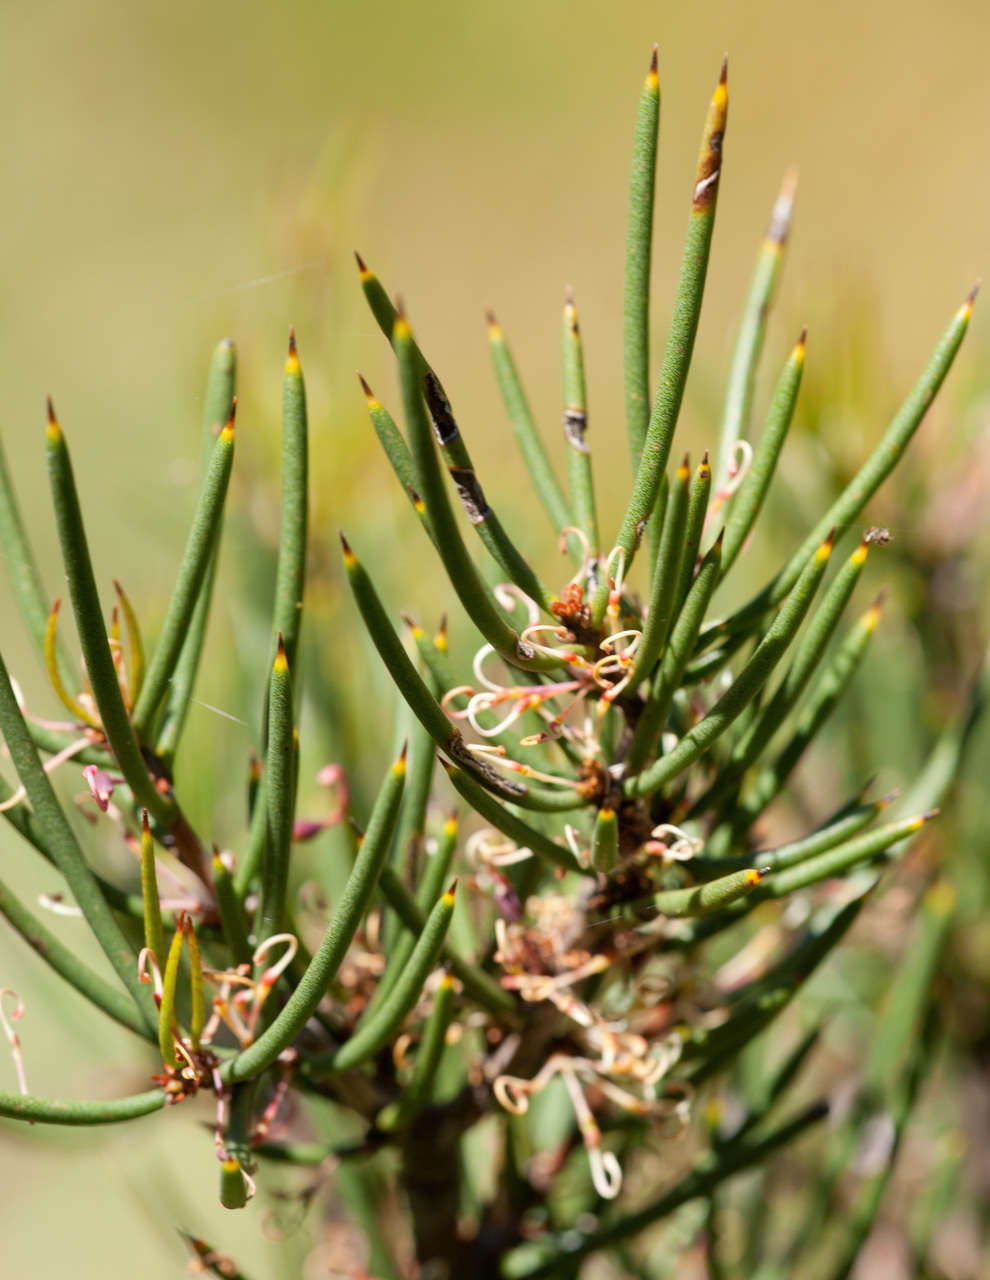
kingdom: Plantae
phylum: Tracheophyta
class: Magnoliopsida
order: Proteales
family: Proteaceae
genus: Hakea
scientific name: Hakea microcarpa
